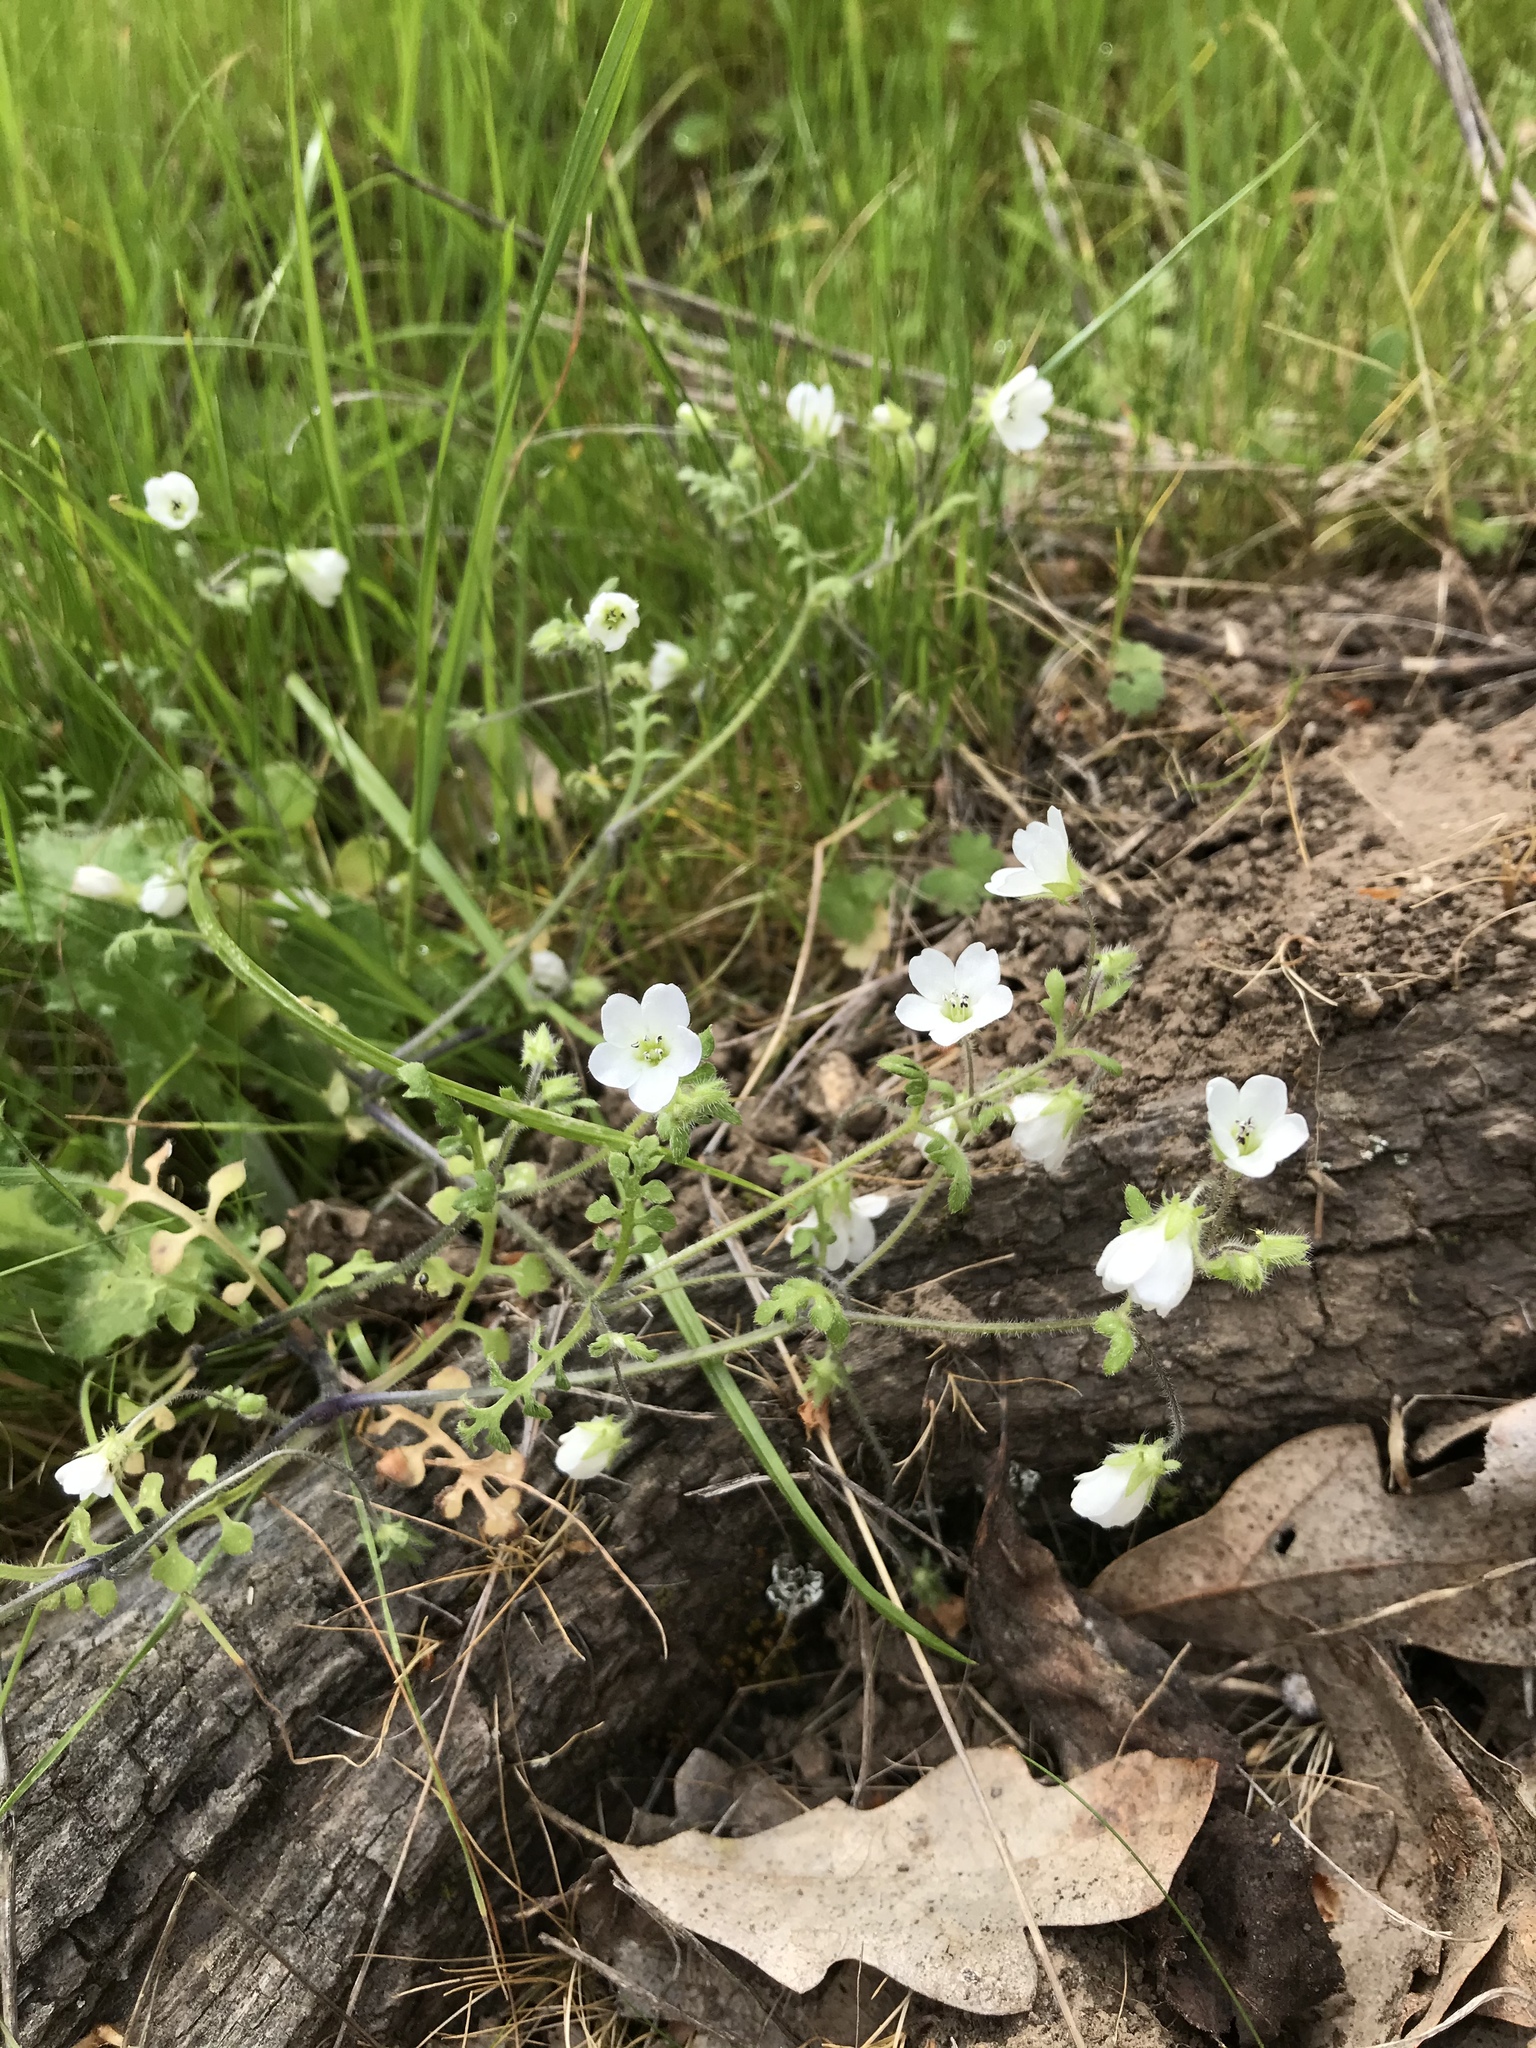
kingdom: Plantae
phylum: Tracheophyta
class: Magnoliopsida
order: Boraginales
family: Hydrophyllaceae
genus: Nemophila
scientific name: Nemophila heterophylla
